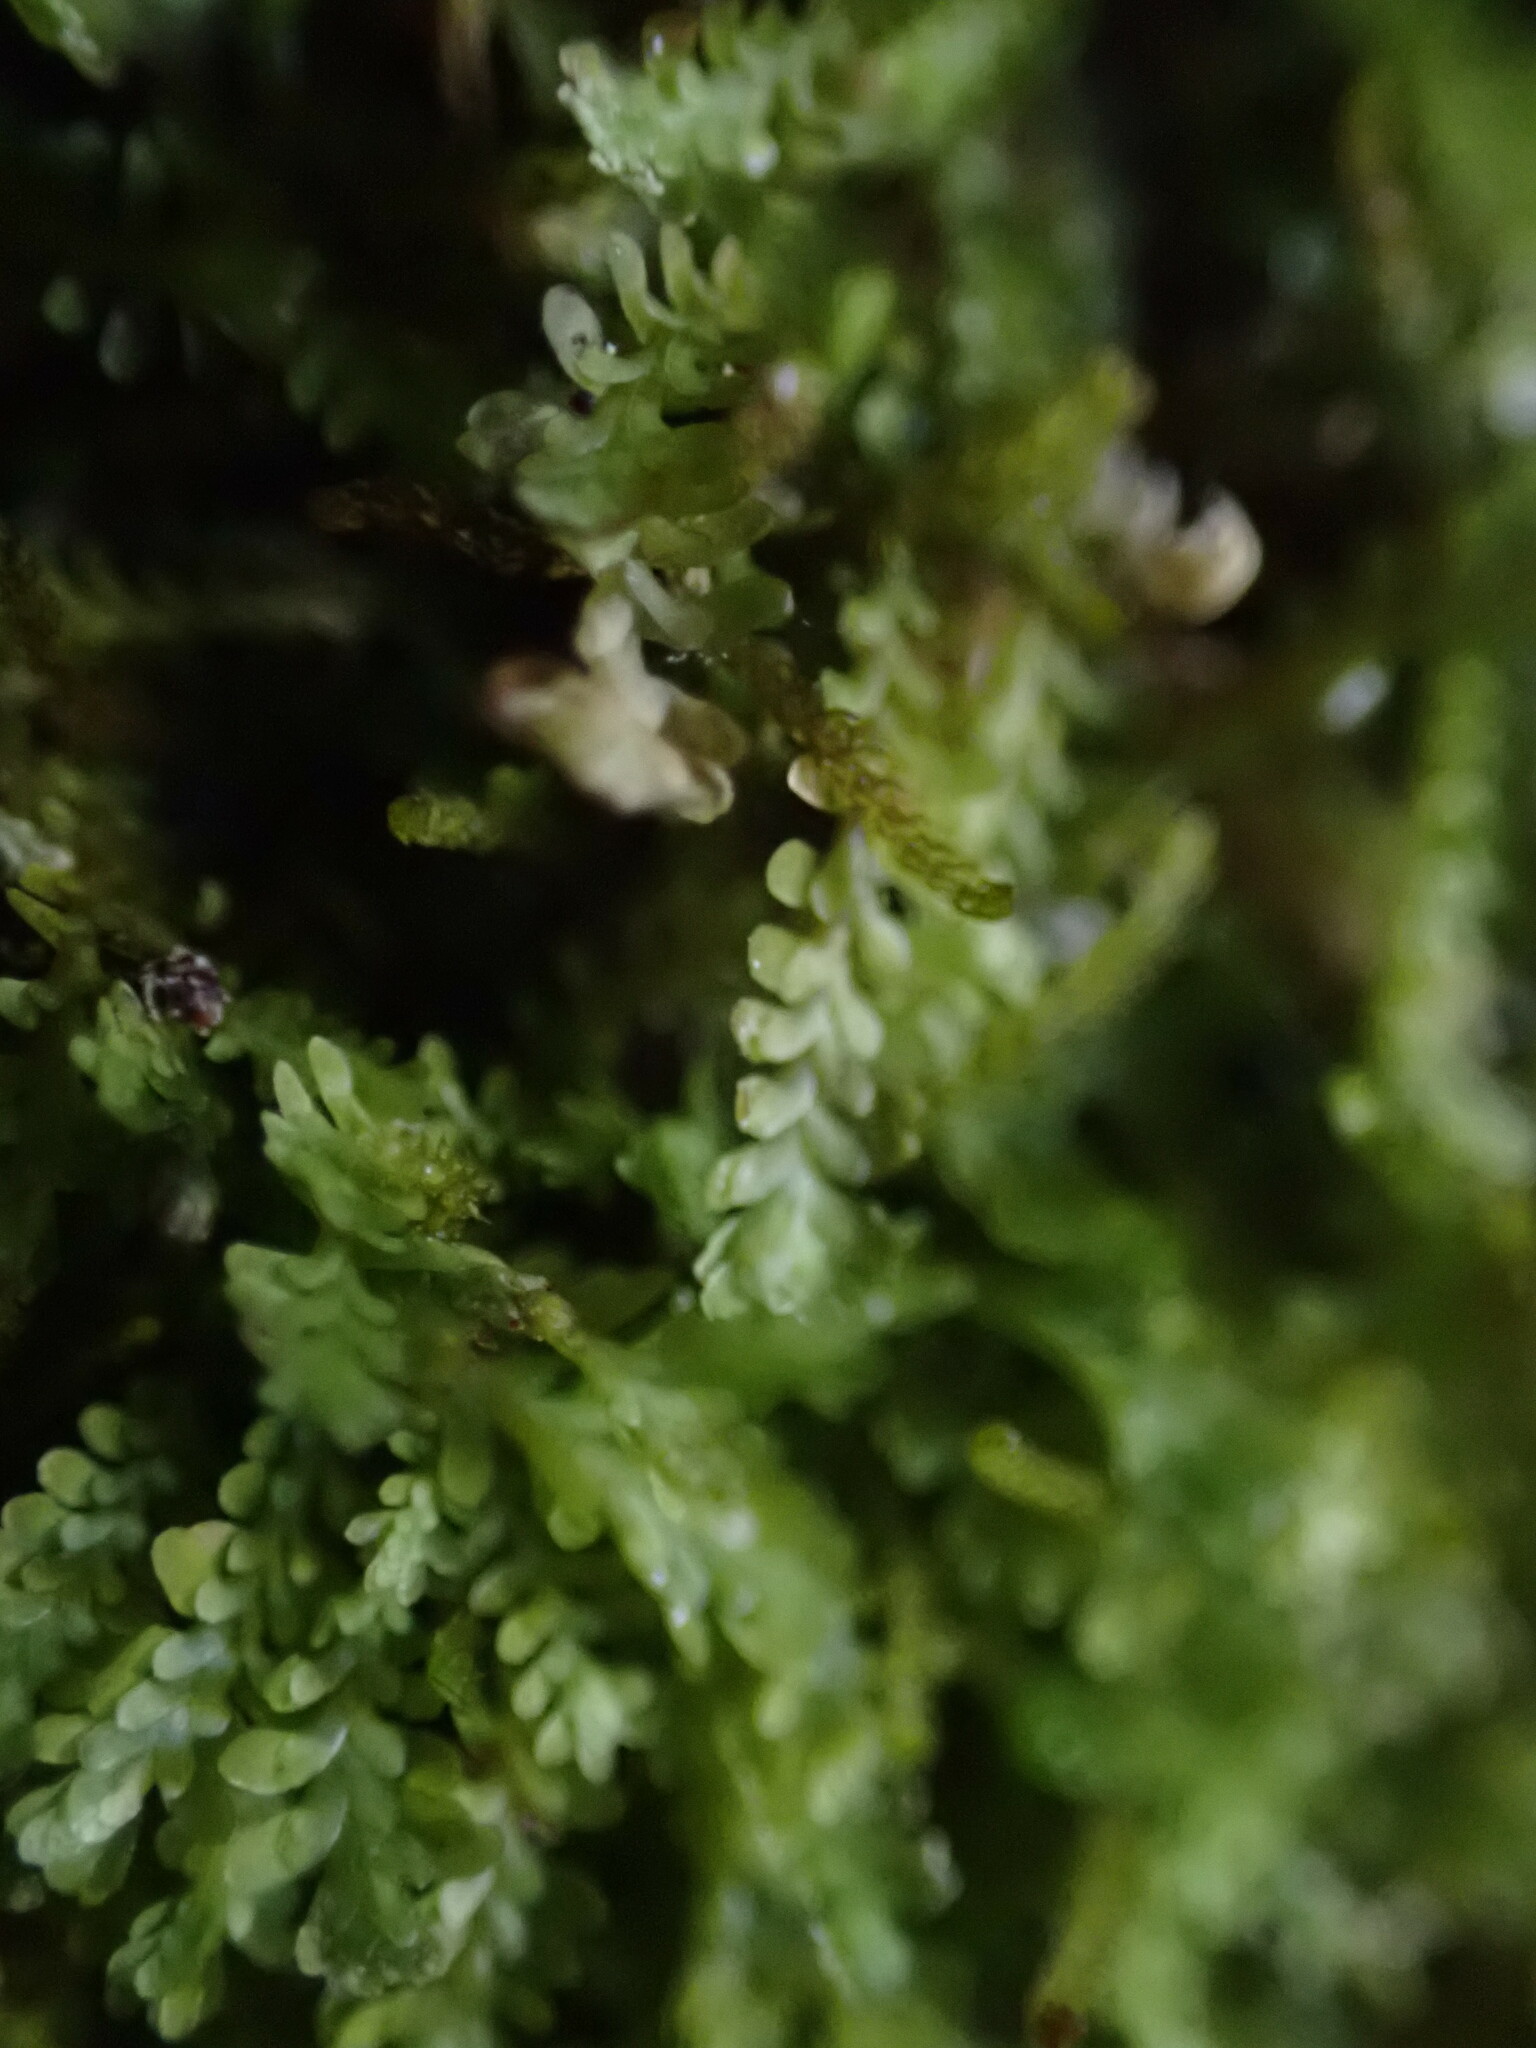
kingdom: Plantae
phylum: Marchantiophyta
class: Jungermanniopsida
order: Jungermanniales
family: Scapaniaceae
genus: Diplophyllum
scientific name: Diplophyllum taxifolium
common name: Alpine earwort
